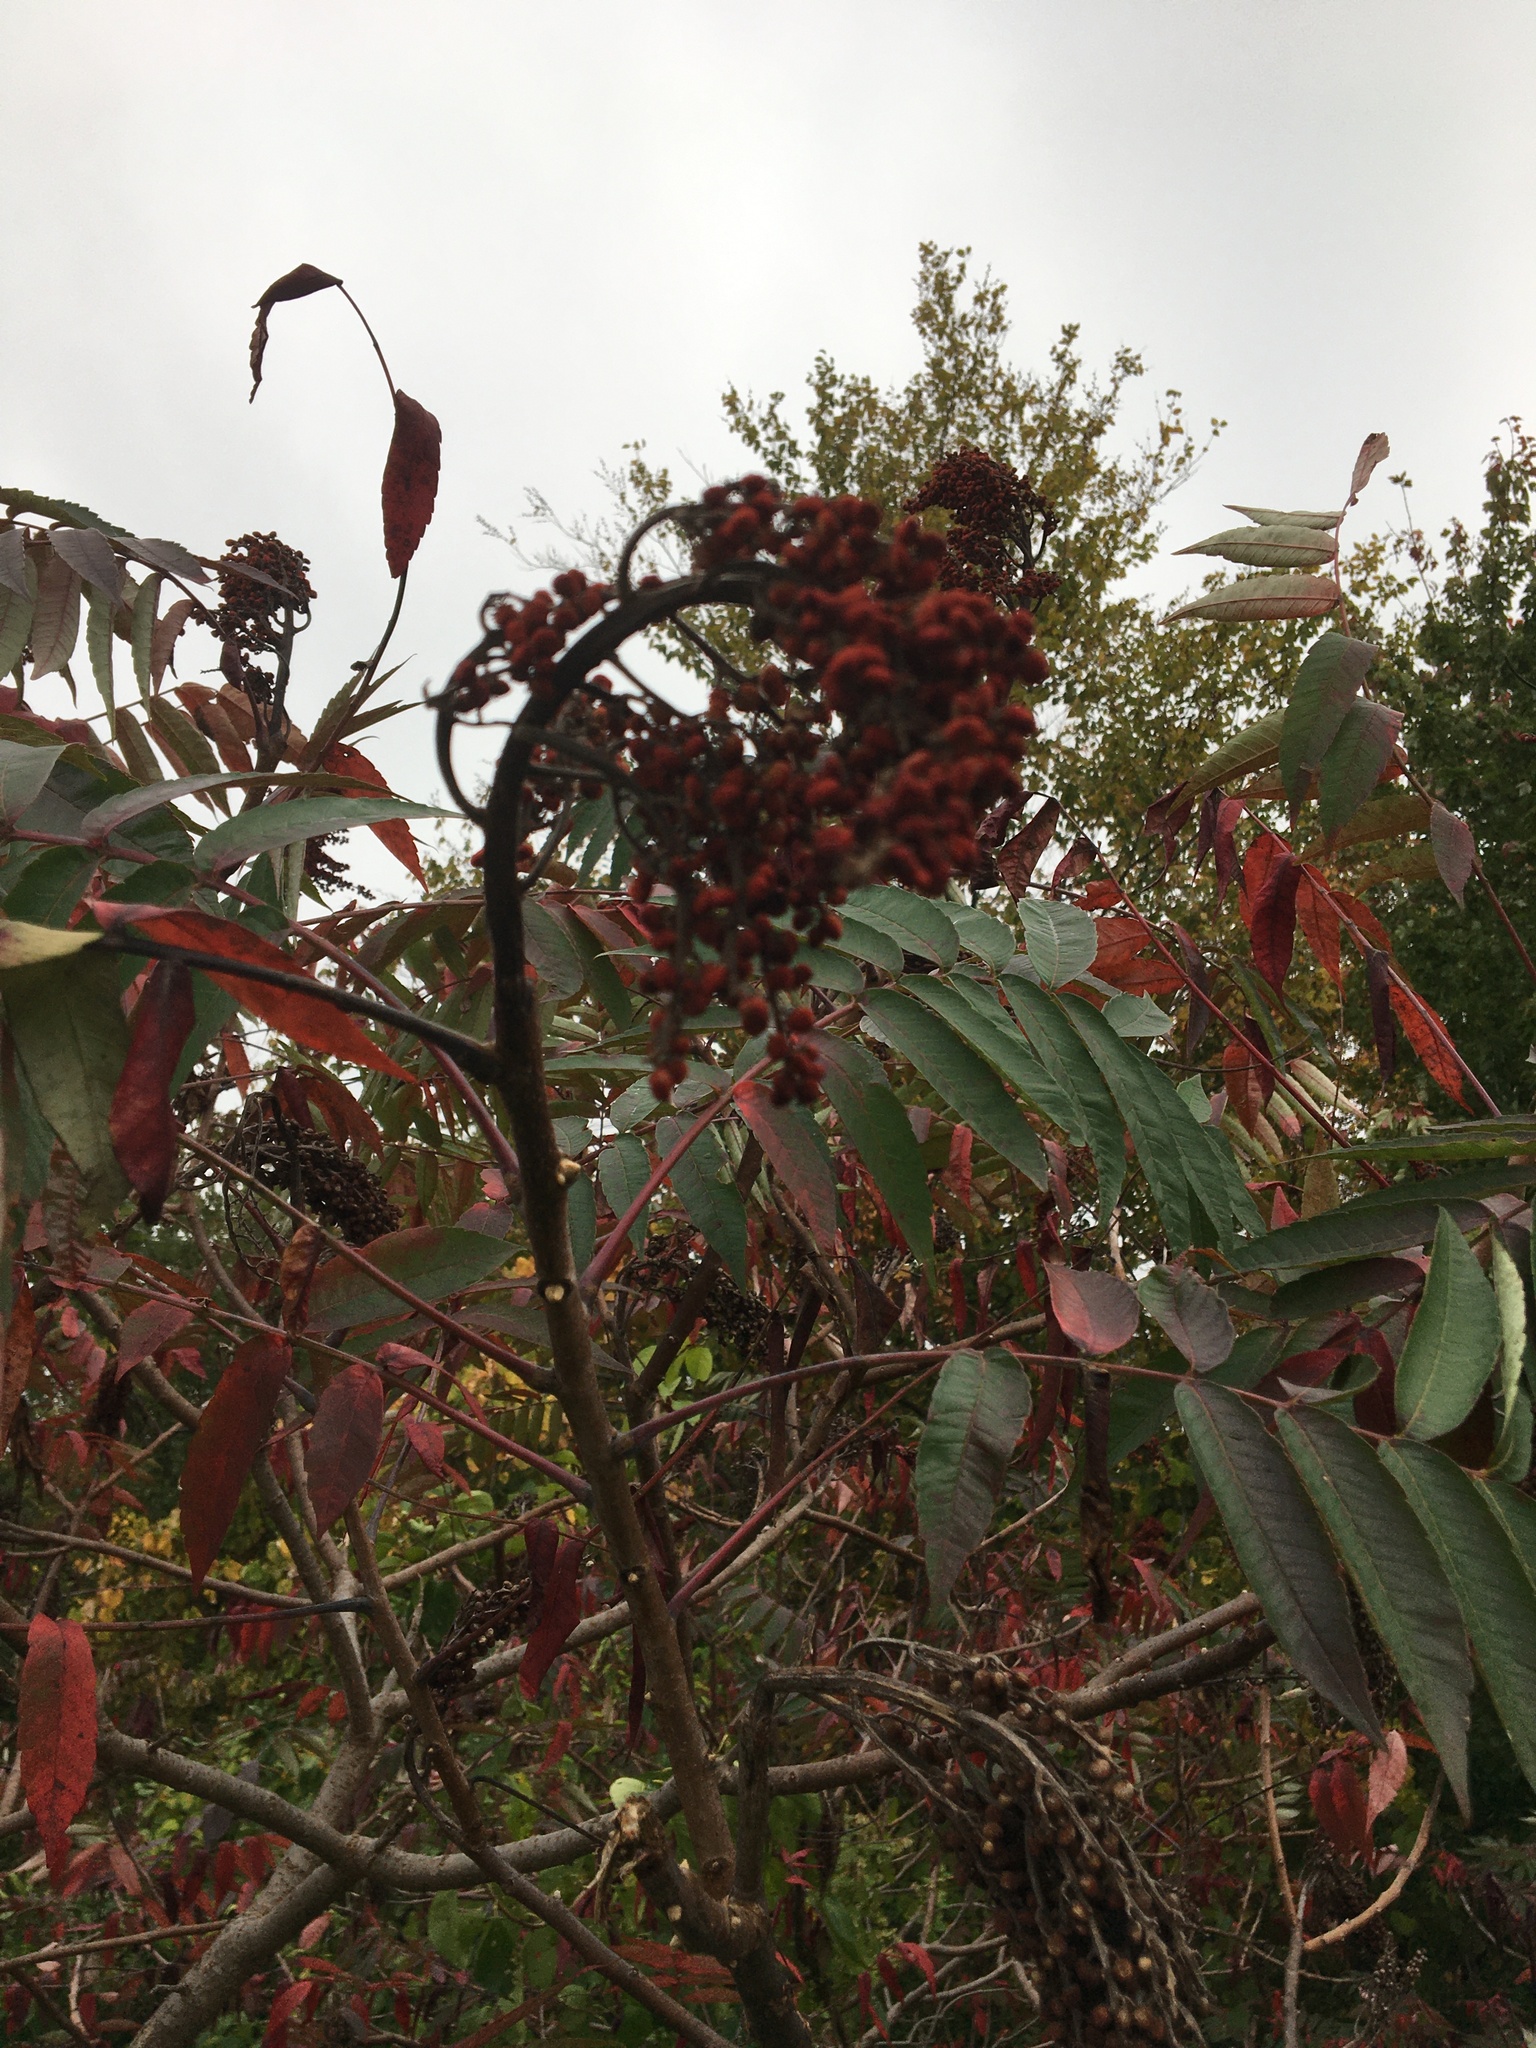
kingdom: Plantae
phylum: Tracheophyta
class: Magnoliopsida
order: Sapindales
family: Anacardiaceae
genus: Rhus
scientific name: Rhus glabra
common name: Scarlet sumac
